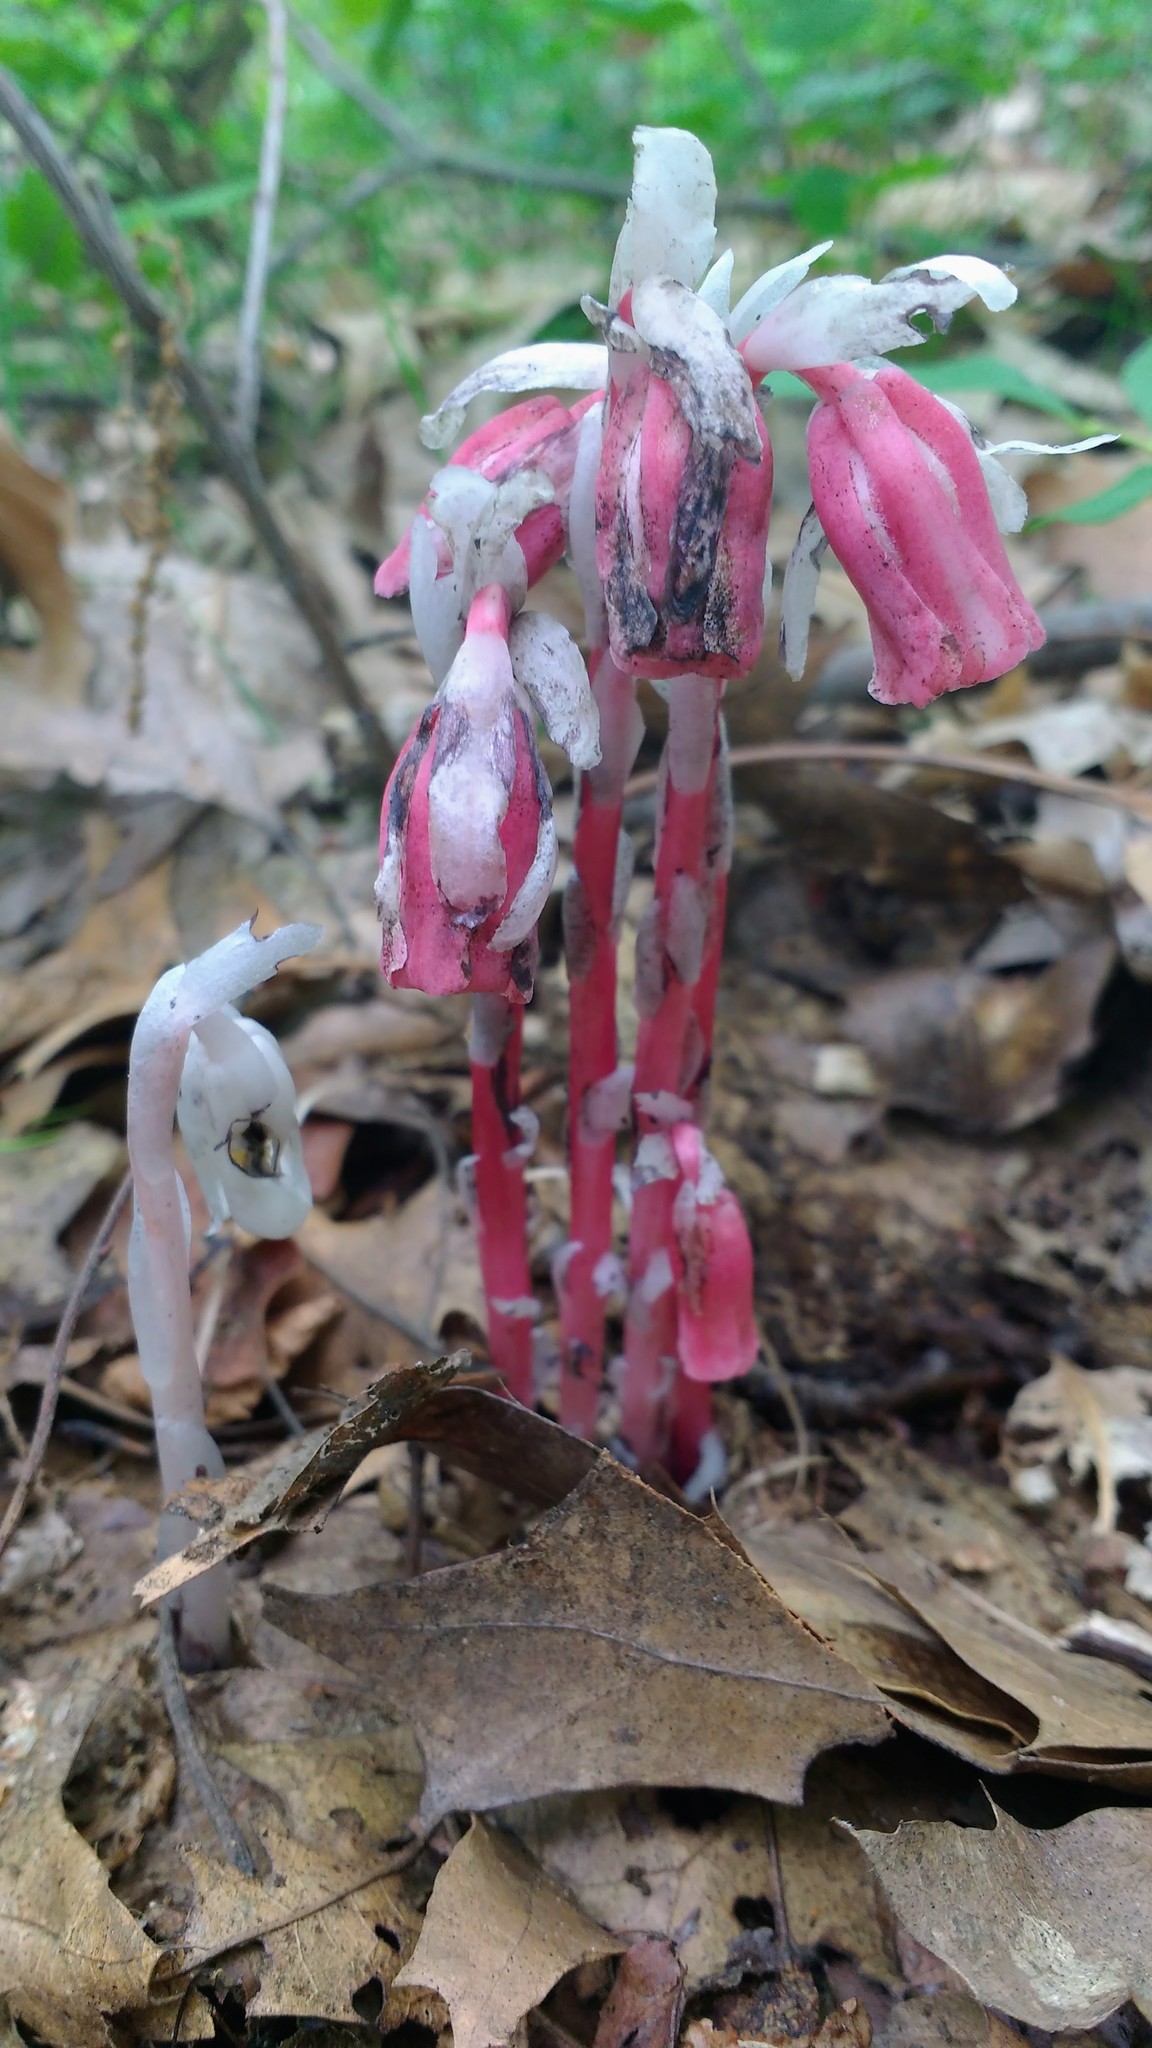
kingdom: Plantae
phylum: Tracheophyta
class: Magnoliopsida
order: Ericales
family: Ericaceae
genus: Monotropa
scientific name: Monotropa uniflora
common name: Convulsion root
